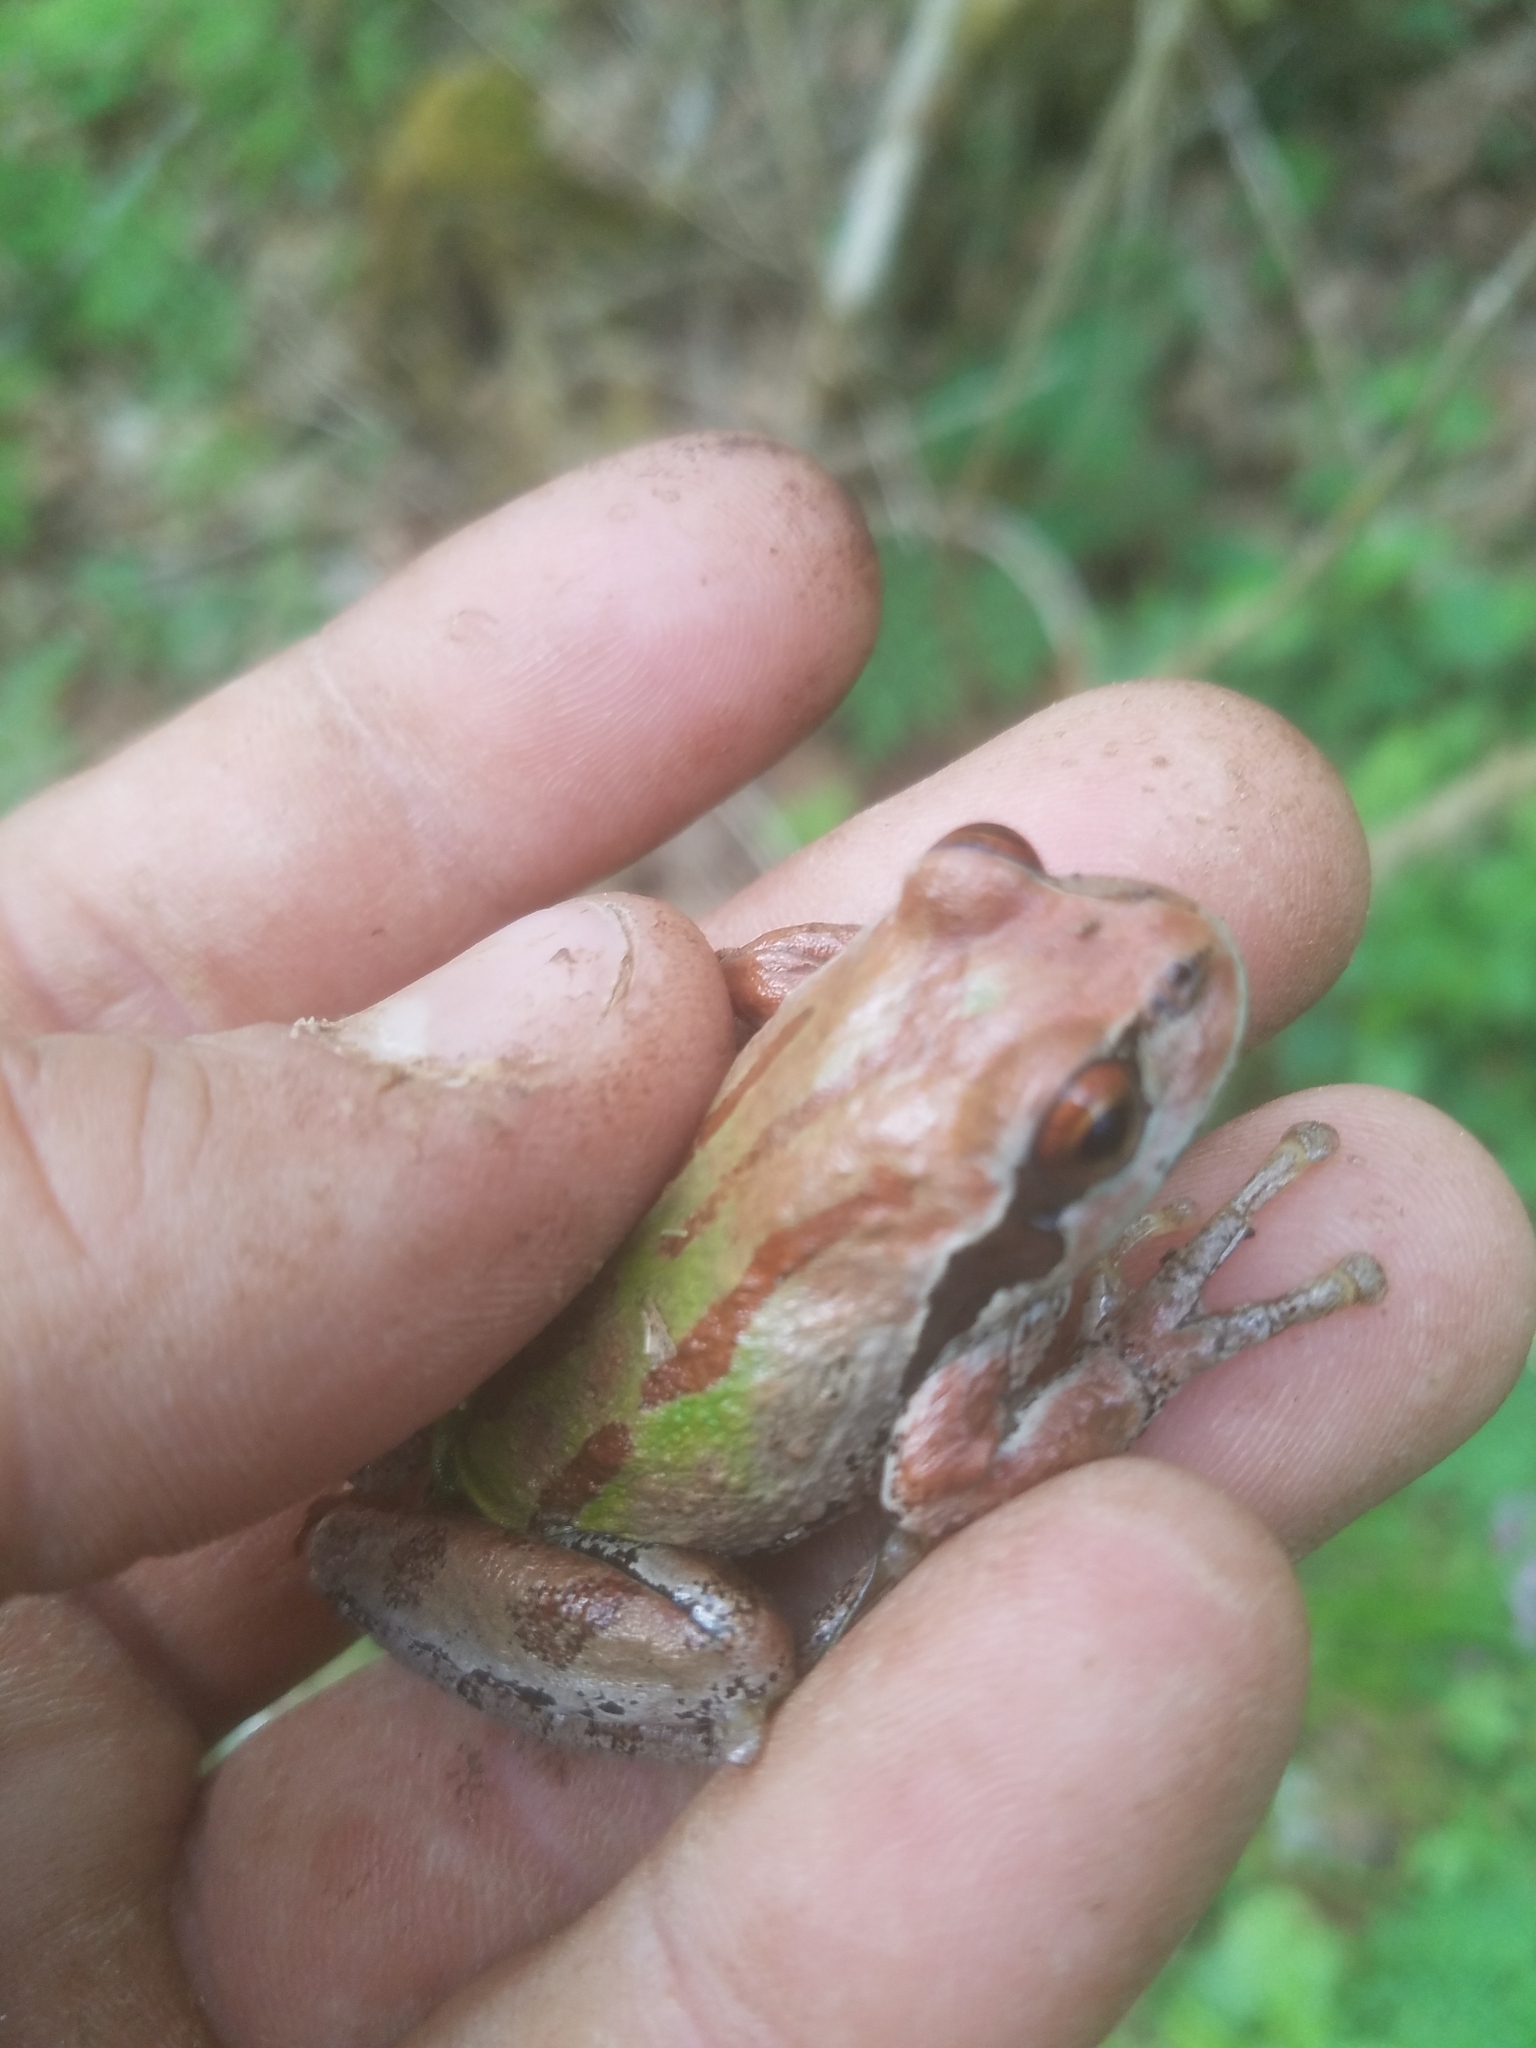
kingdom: Animalia
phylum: Chordata
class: Amphibia
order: Anura
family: Hylidae
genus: Pseudacris
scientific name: Pseudacris regilla
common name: Pacific chorus frog
